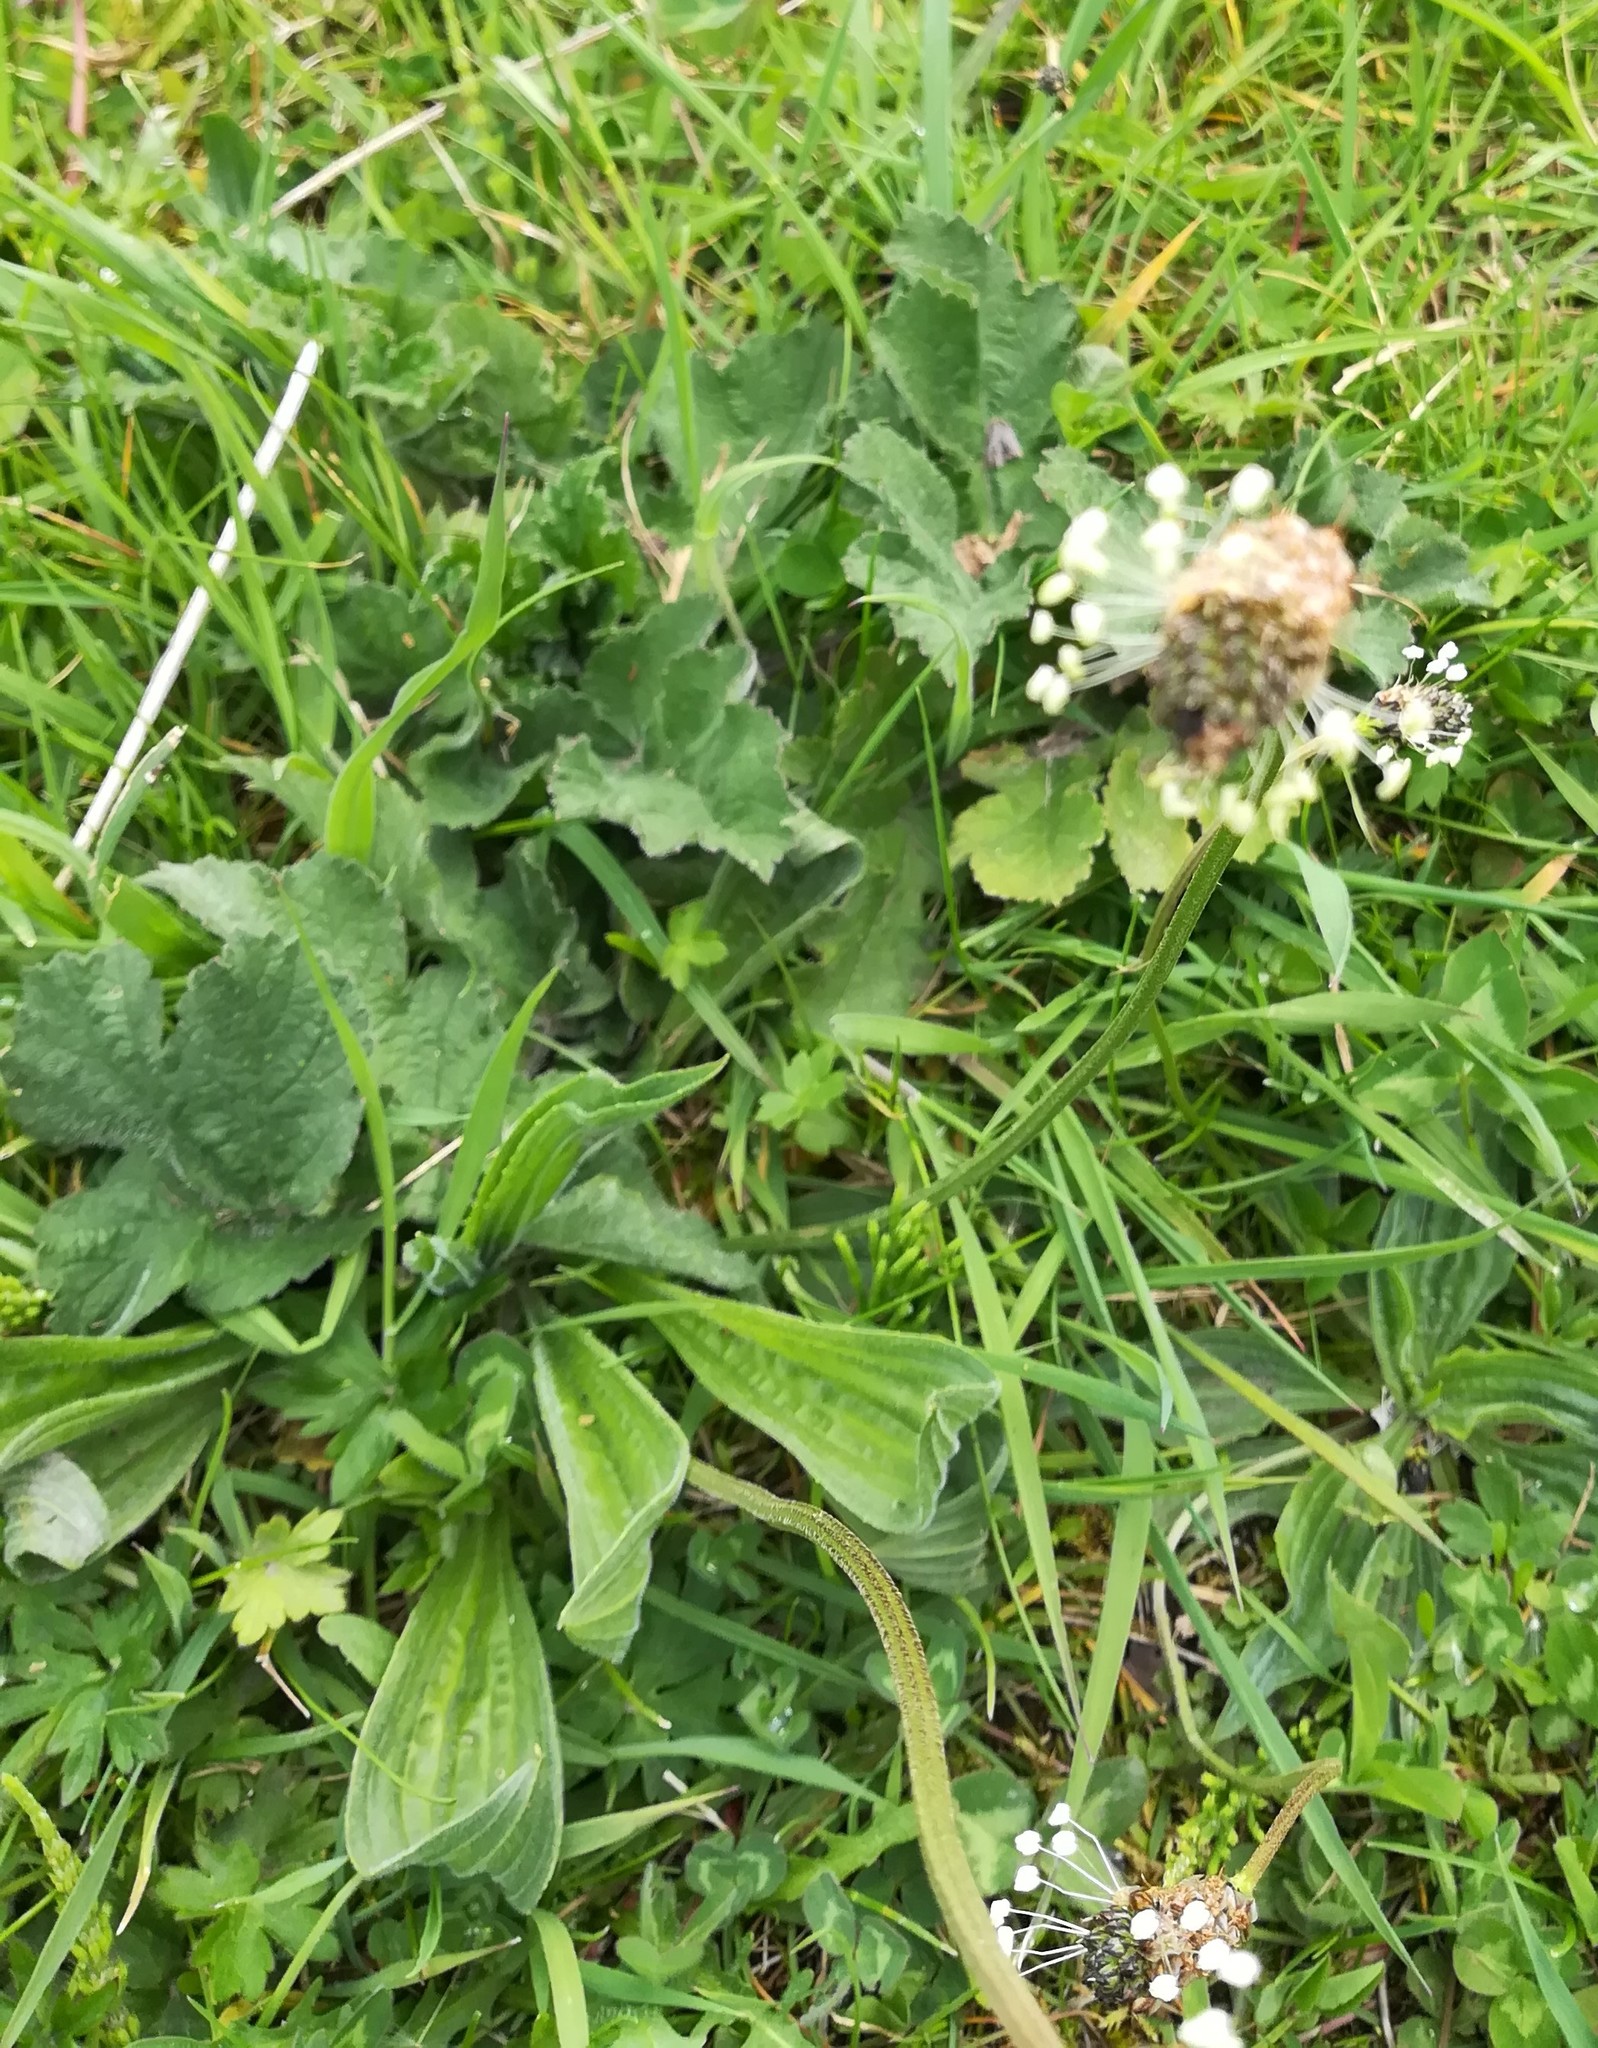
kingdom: Plantae
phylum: Tracheophyta
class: Magnoliopsida
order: Lamiales
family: Plantaginaceae
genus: Plantago
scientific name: Plantago lanceolata
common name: Ribwort plantain
